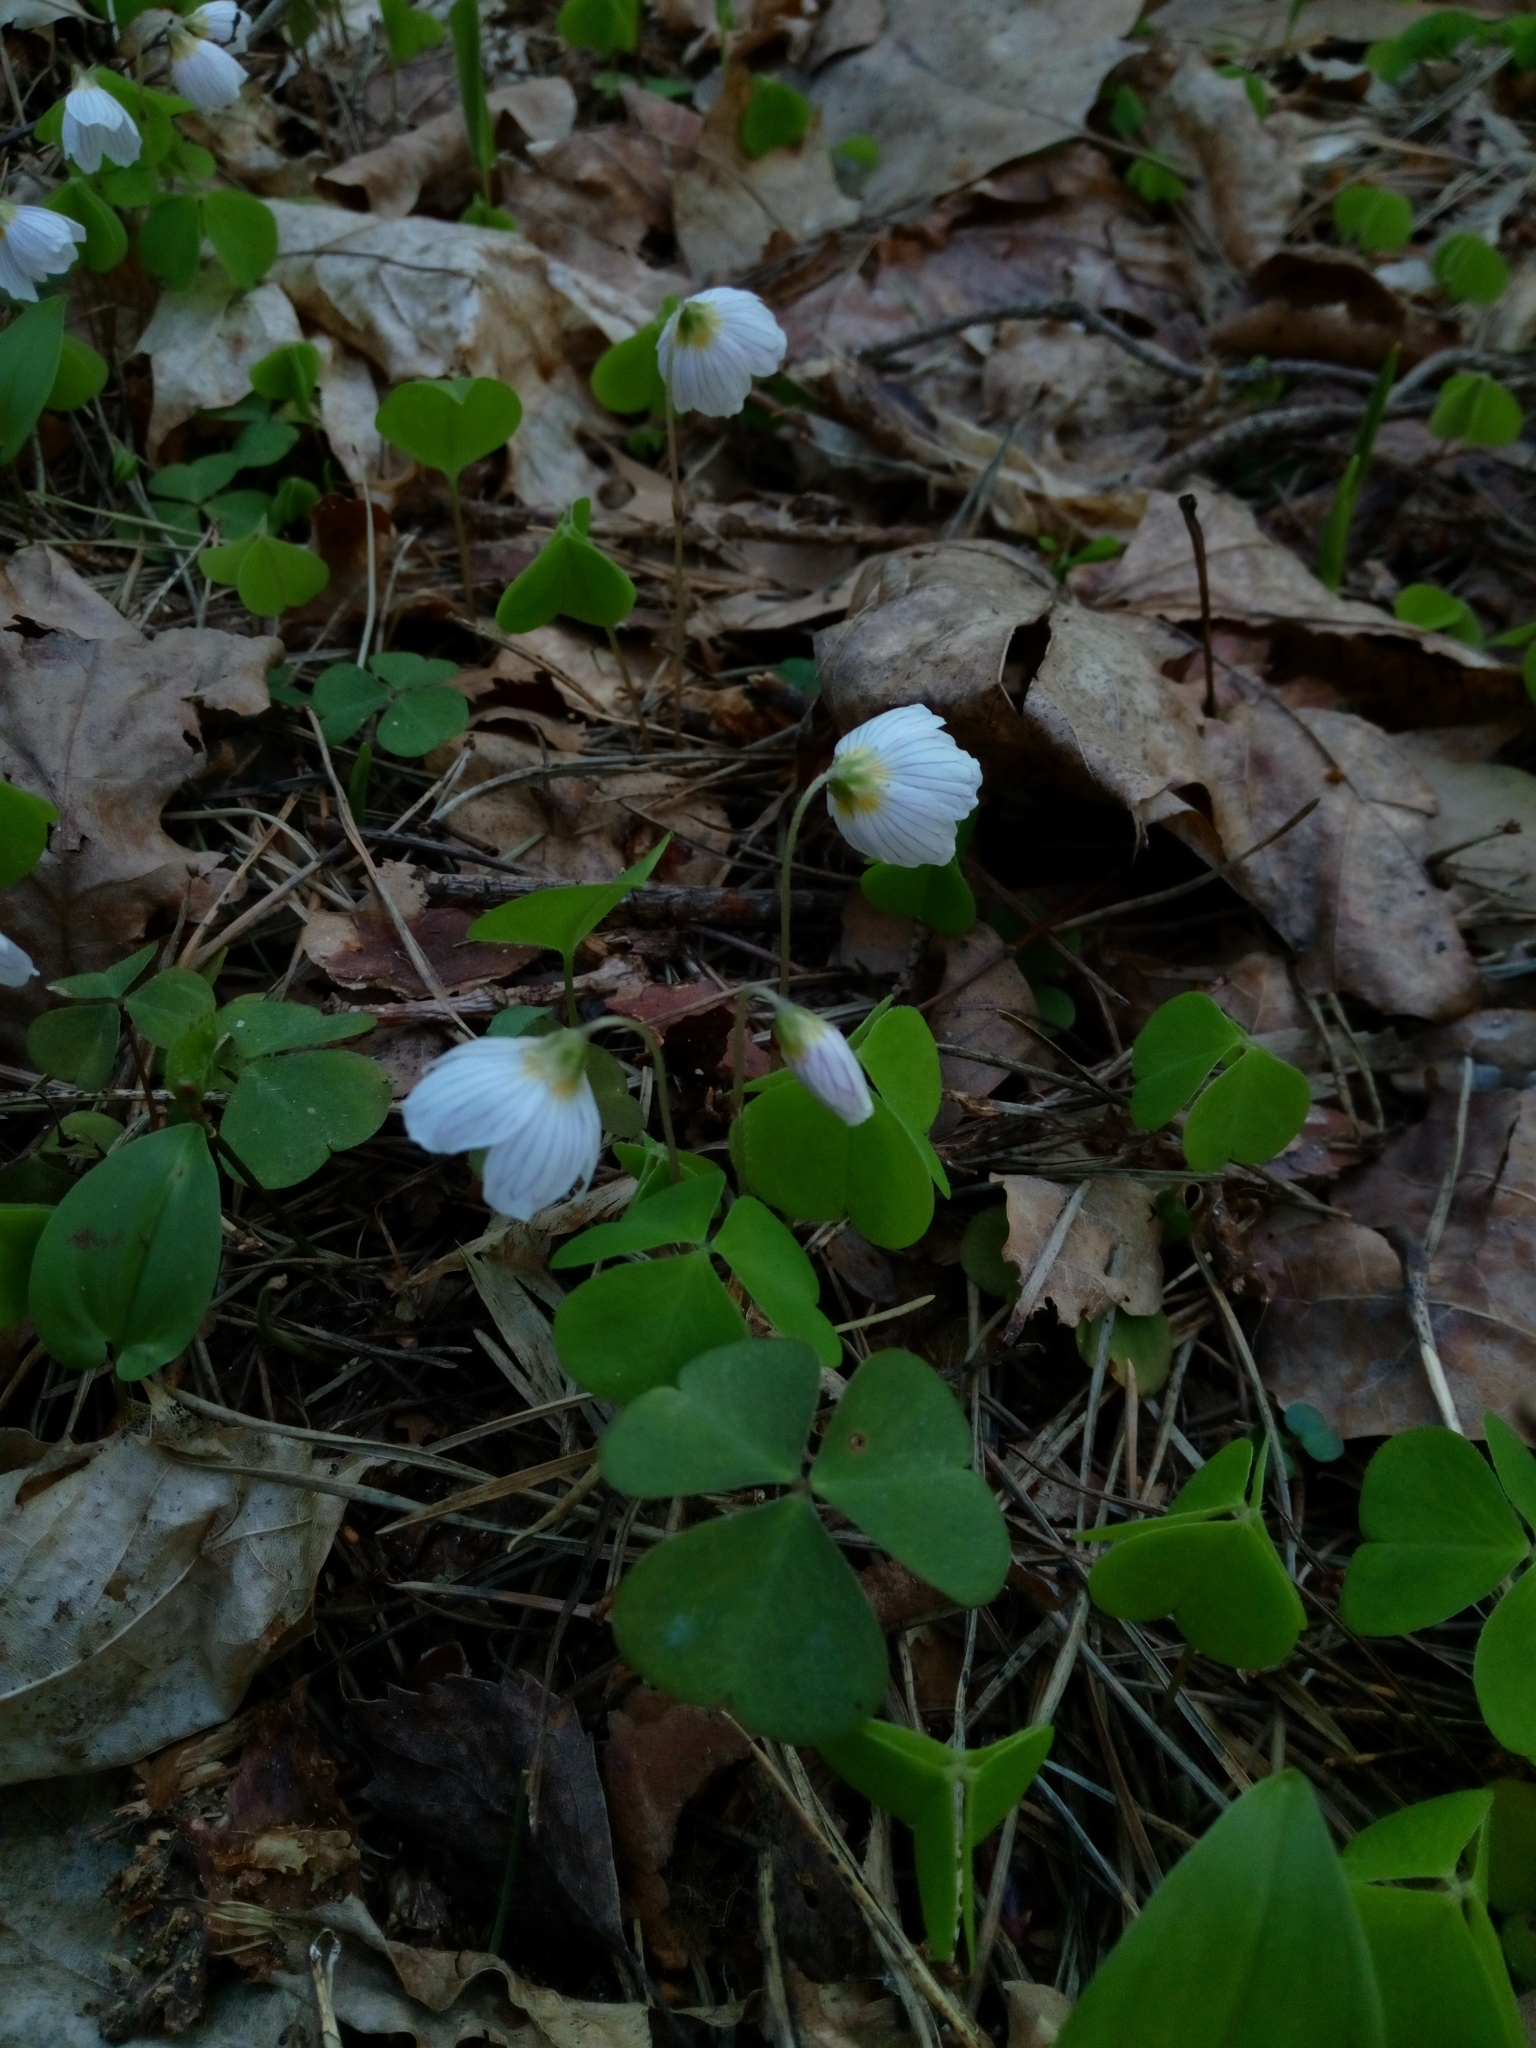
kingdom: Plantae
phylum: Tracheophyta
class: Magnoliopsida
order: Oxalidales
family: Oxalidaceae
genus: Oxalis
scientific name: Oxalis acetosella
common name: Wood-sorrel
